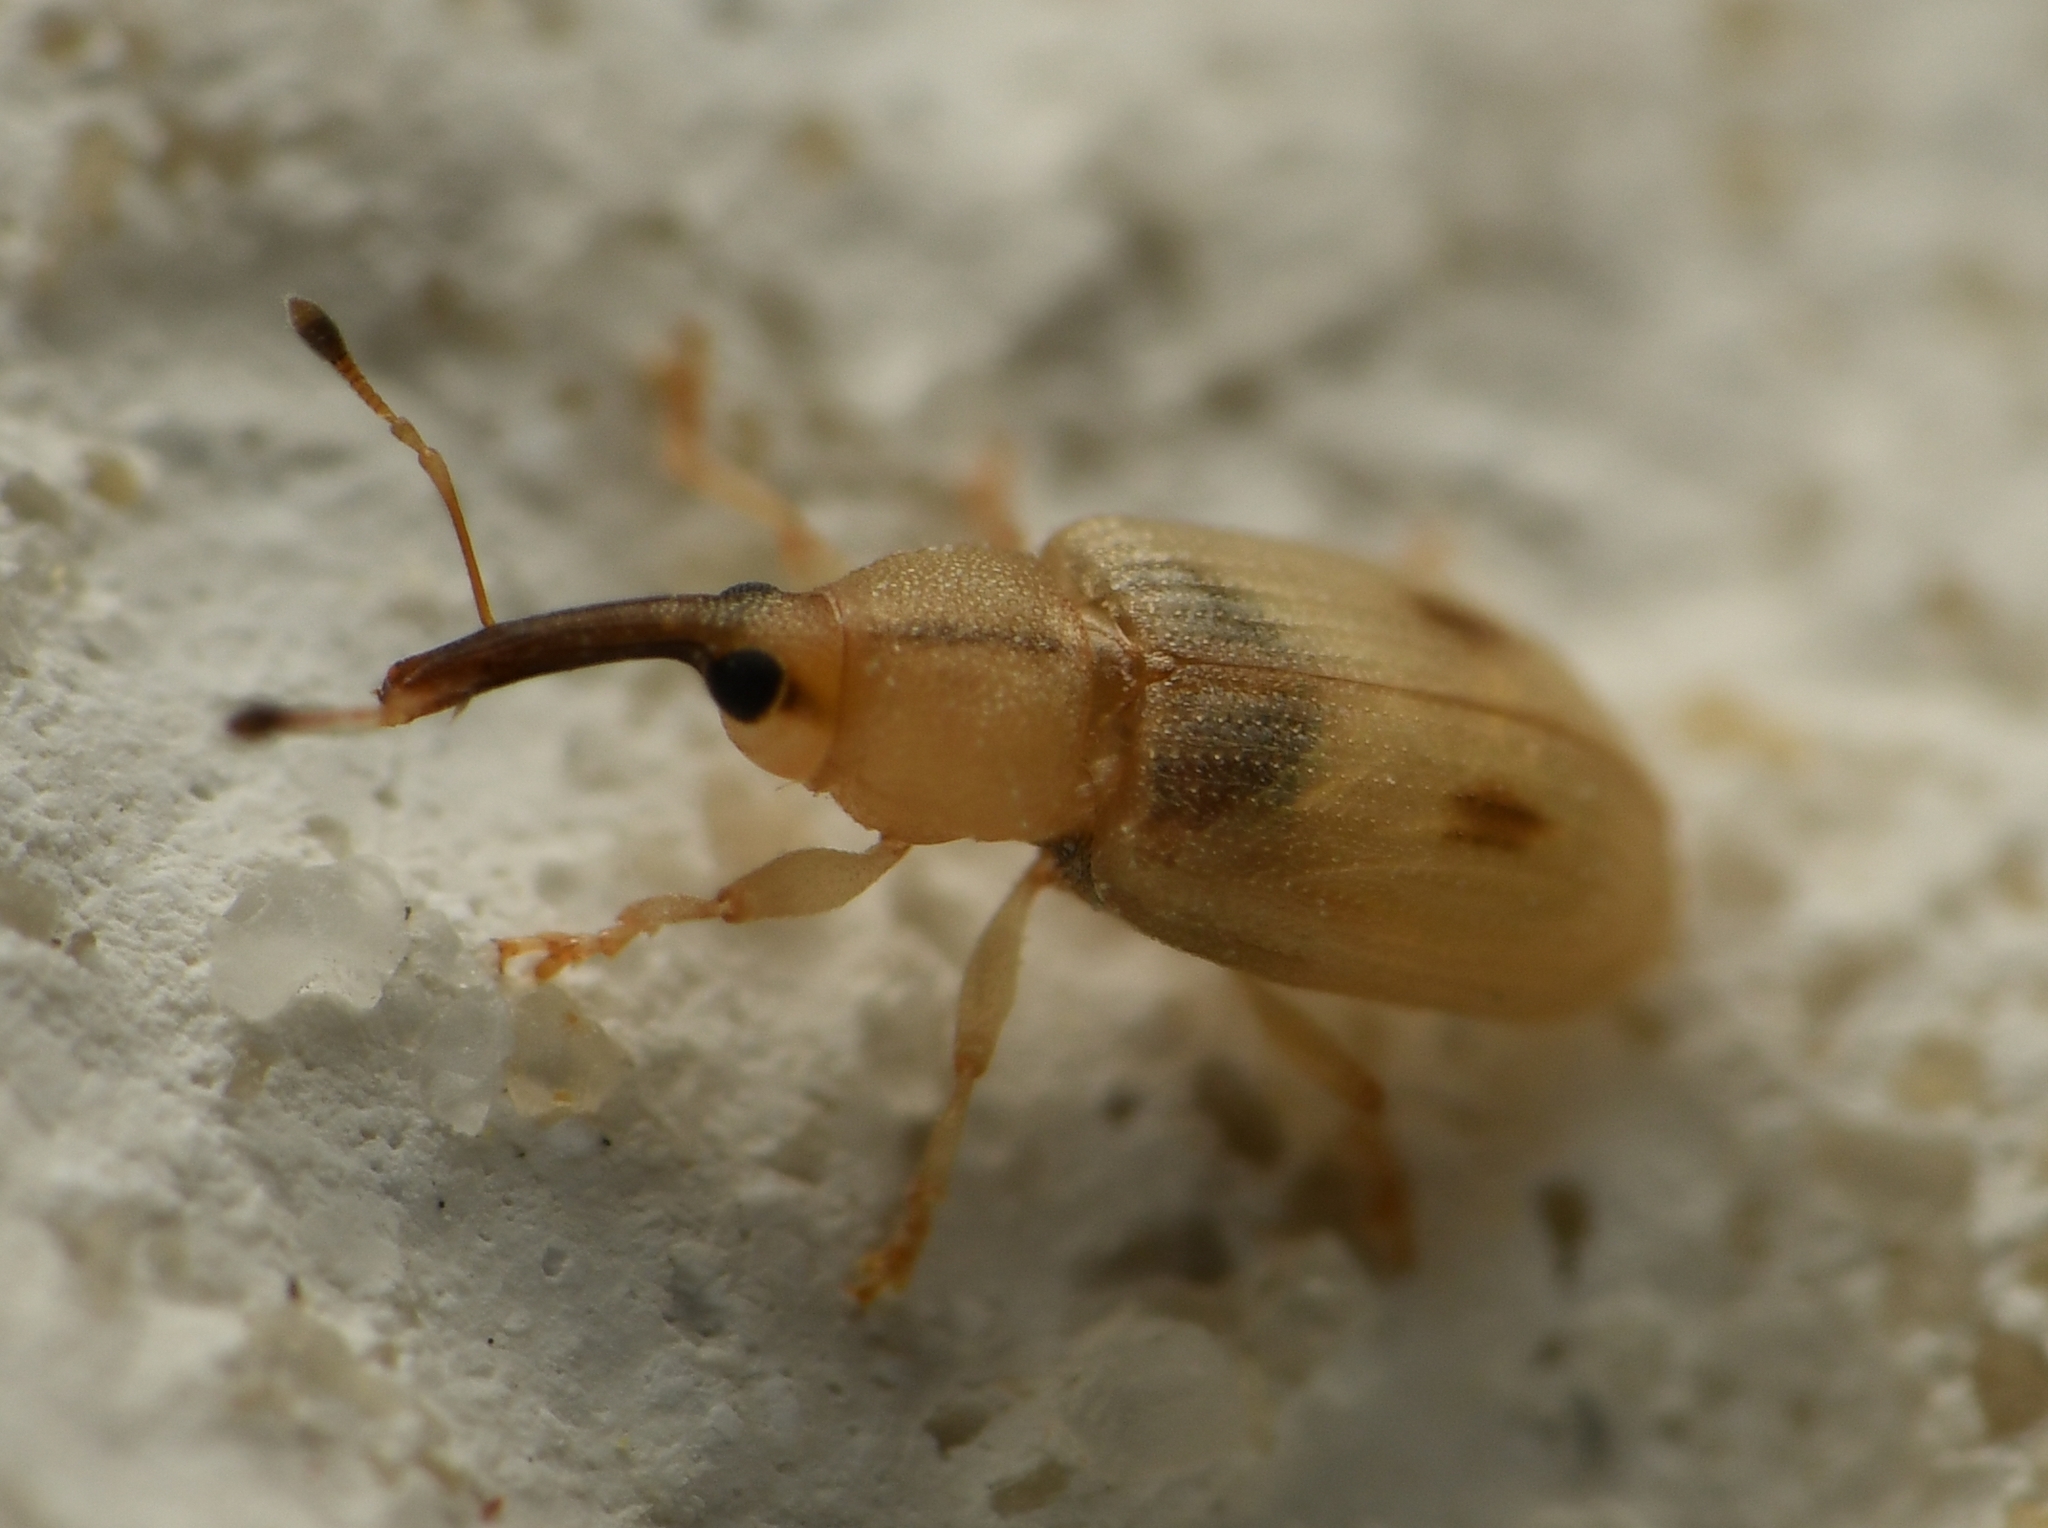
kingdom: Animalia
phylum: Arthropoda
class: Insecta
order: Coleoptera
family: Curculionidae
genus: Notolomus
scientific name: Notolomus basalis
